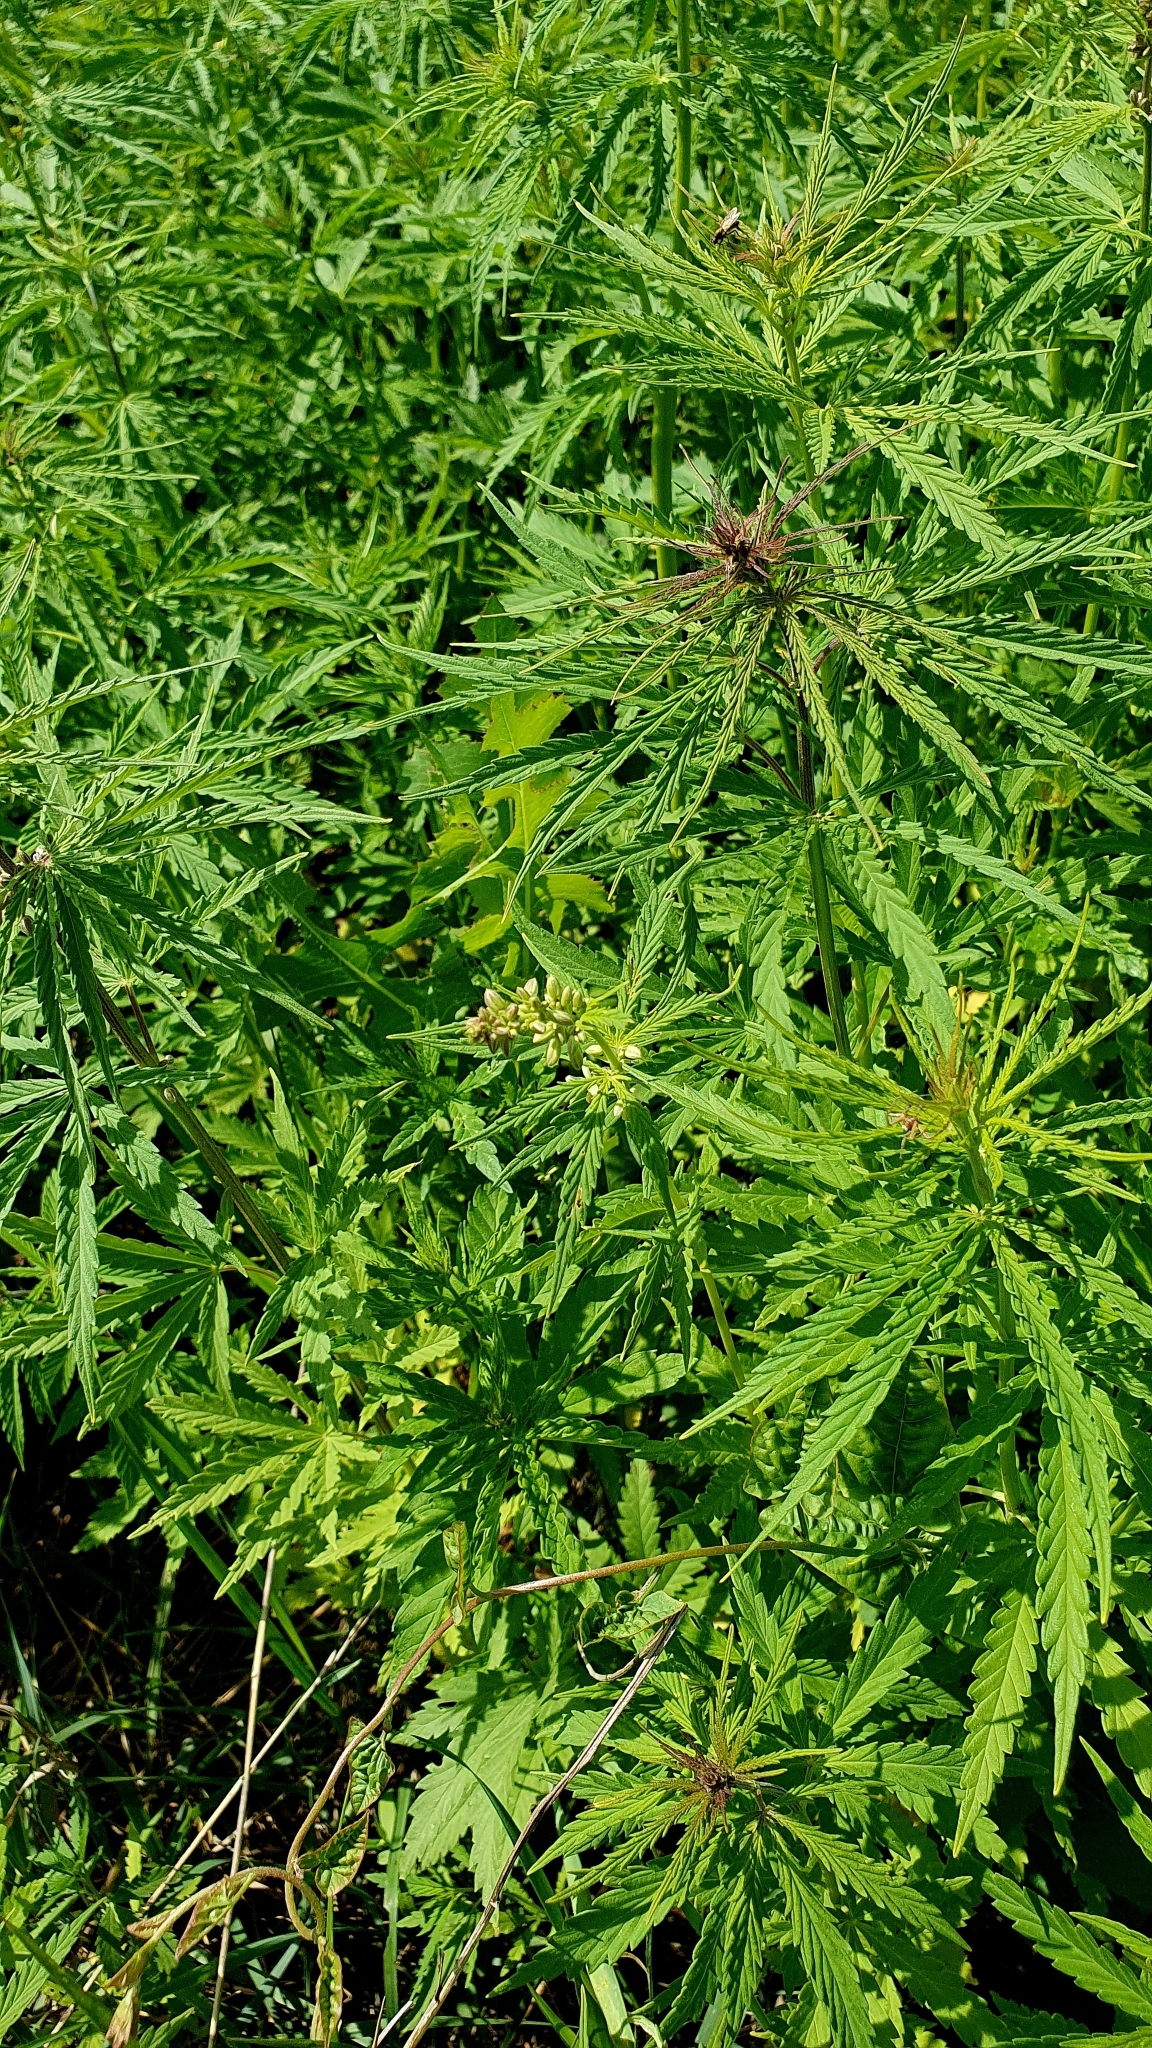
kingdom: Plantae
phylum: Tracheophyta
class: Magnoliopsida
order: Rosales
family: Cannabaceae
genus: Cannabis
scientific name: Cannabis sativa
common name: Hemp
